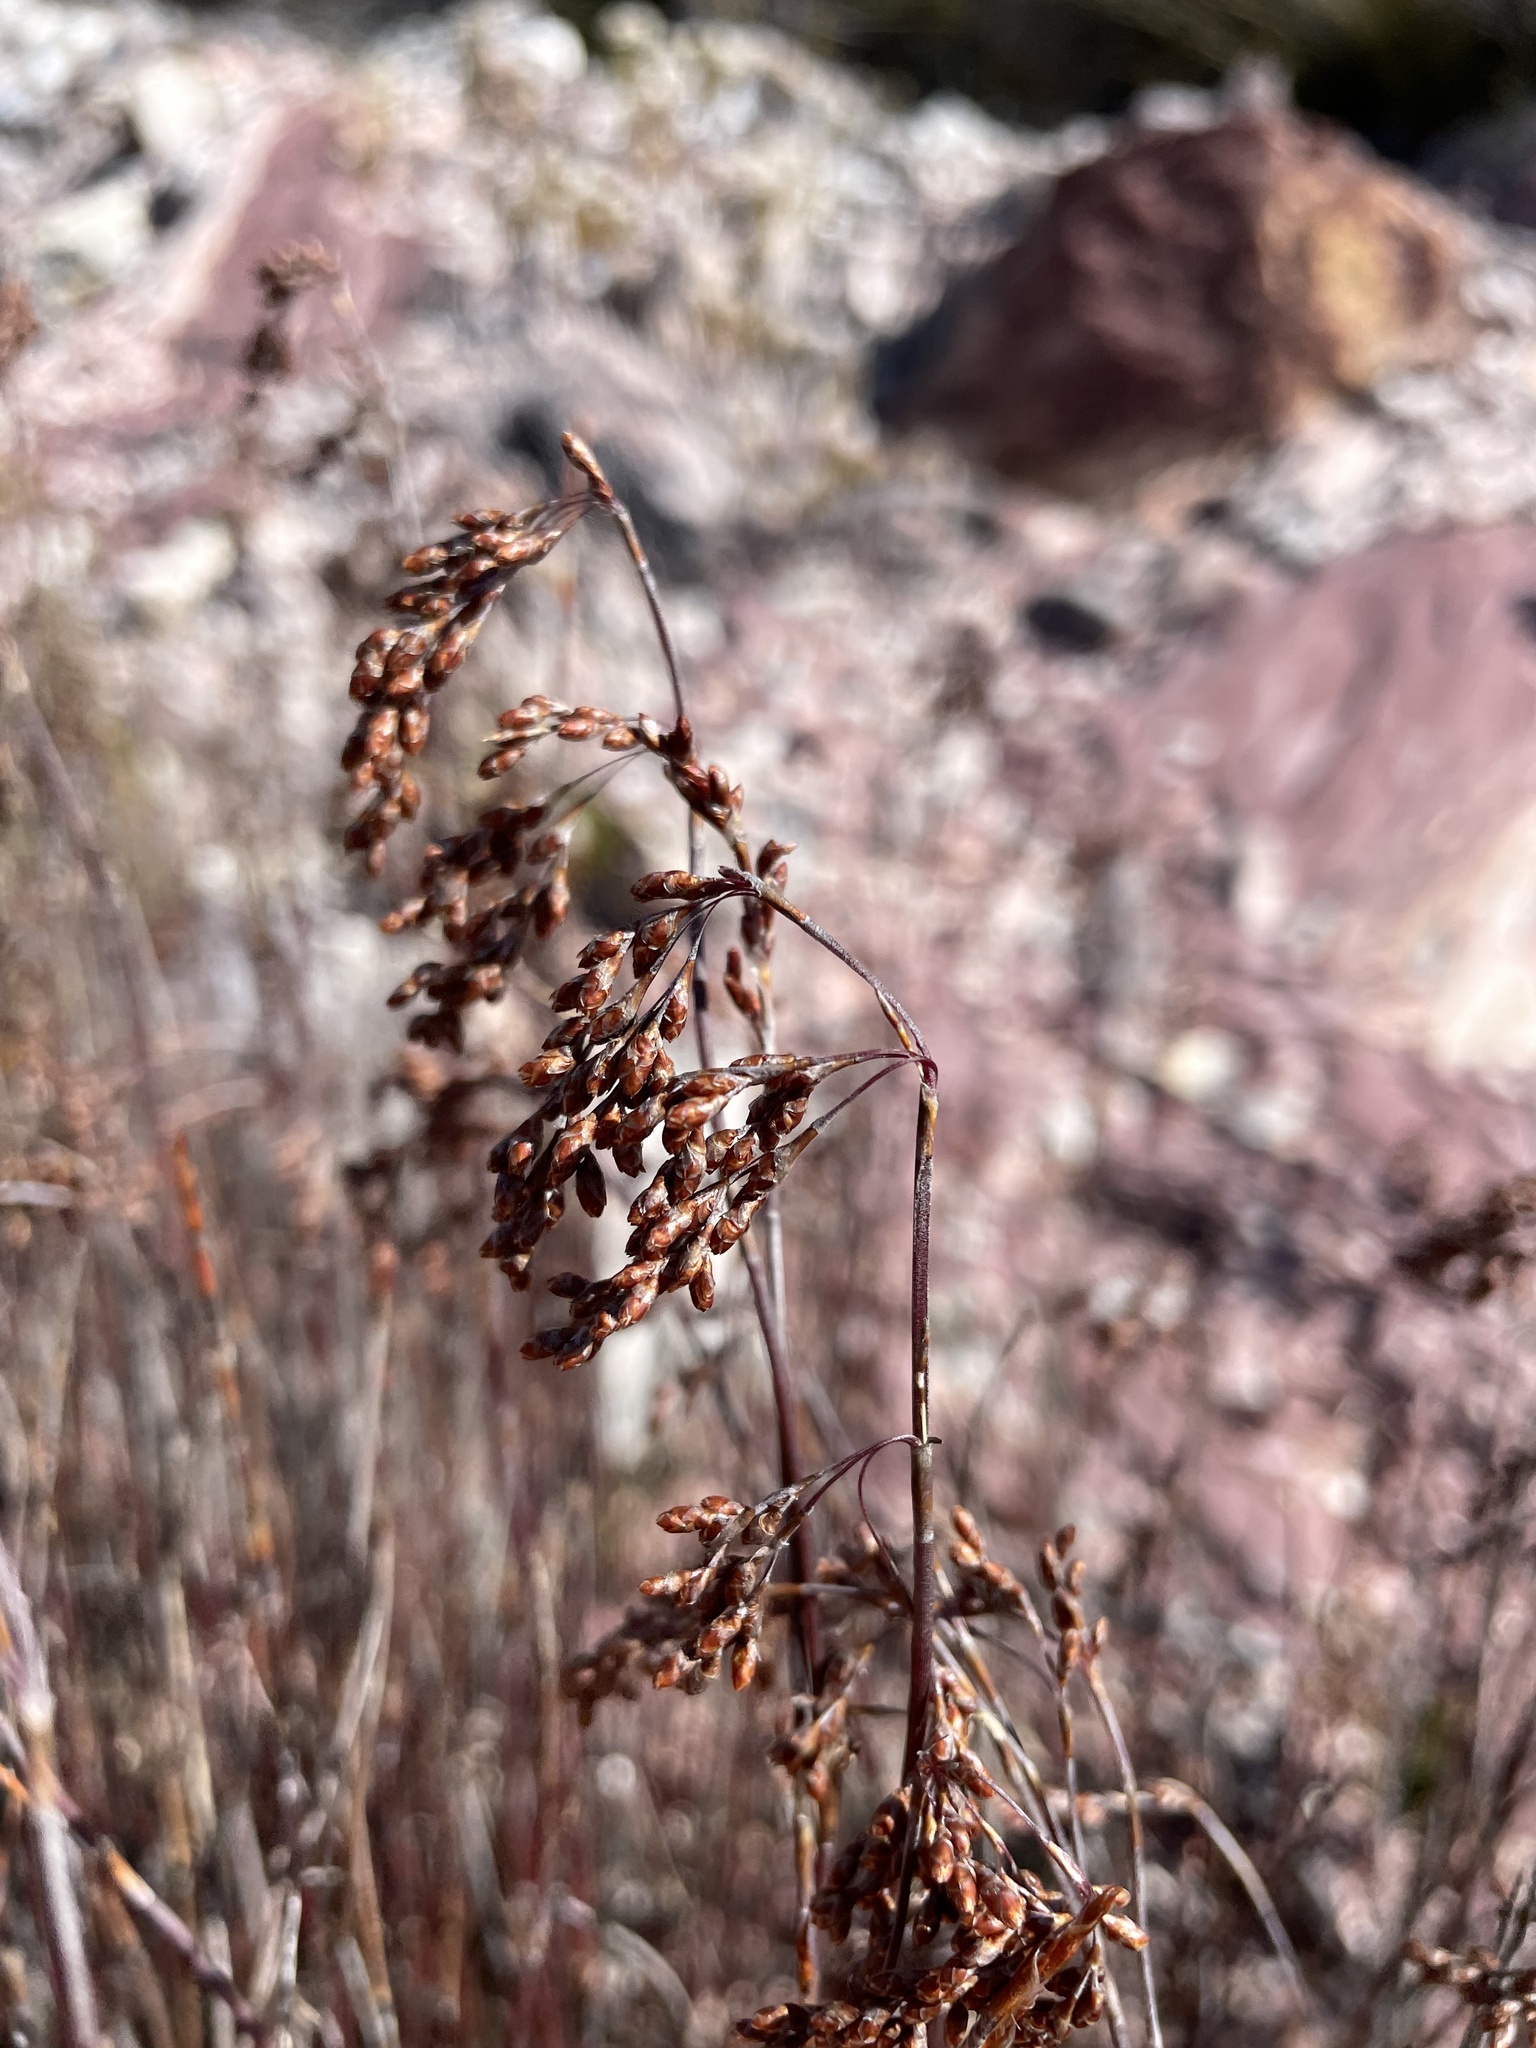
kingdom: Plantae
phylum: Tracheophyta
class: Liliopsida
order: Poales
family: Restionaceae
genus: Leptocarpus
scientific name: Leptocarpus tenax
